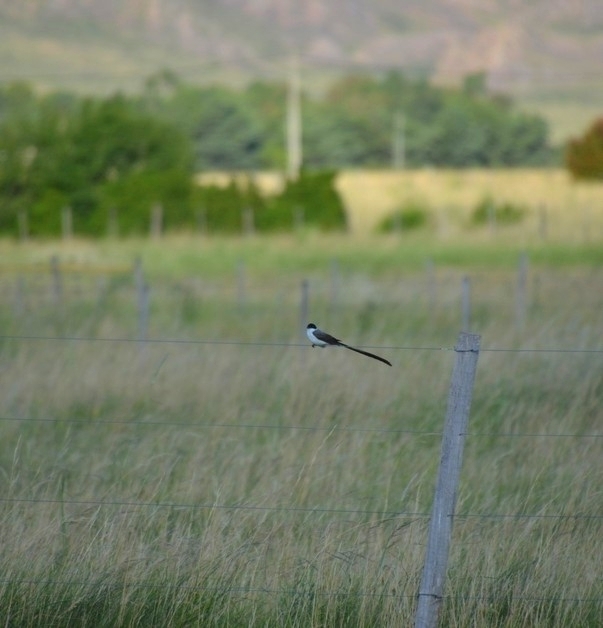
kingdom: Animalia
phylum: Chordata
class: Aves
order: Passeriformes
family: Tyrannidae
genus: Tyrannus
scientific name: Tyrannus savana
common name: Fork-tailed flycatcher
